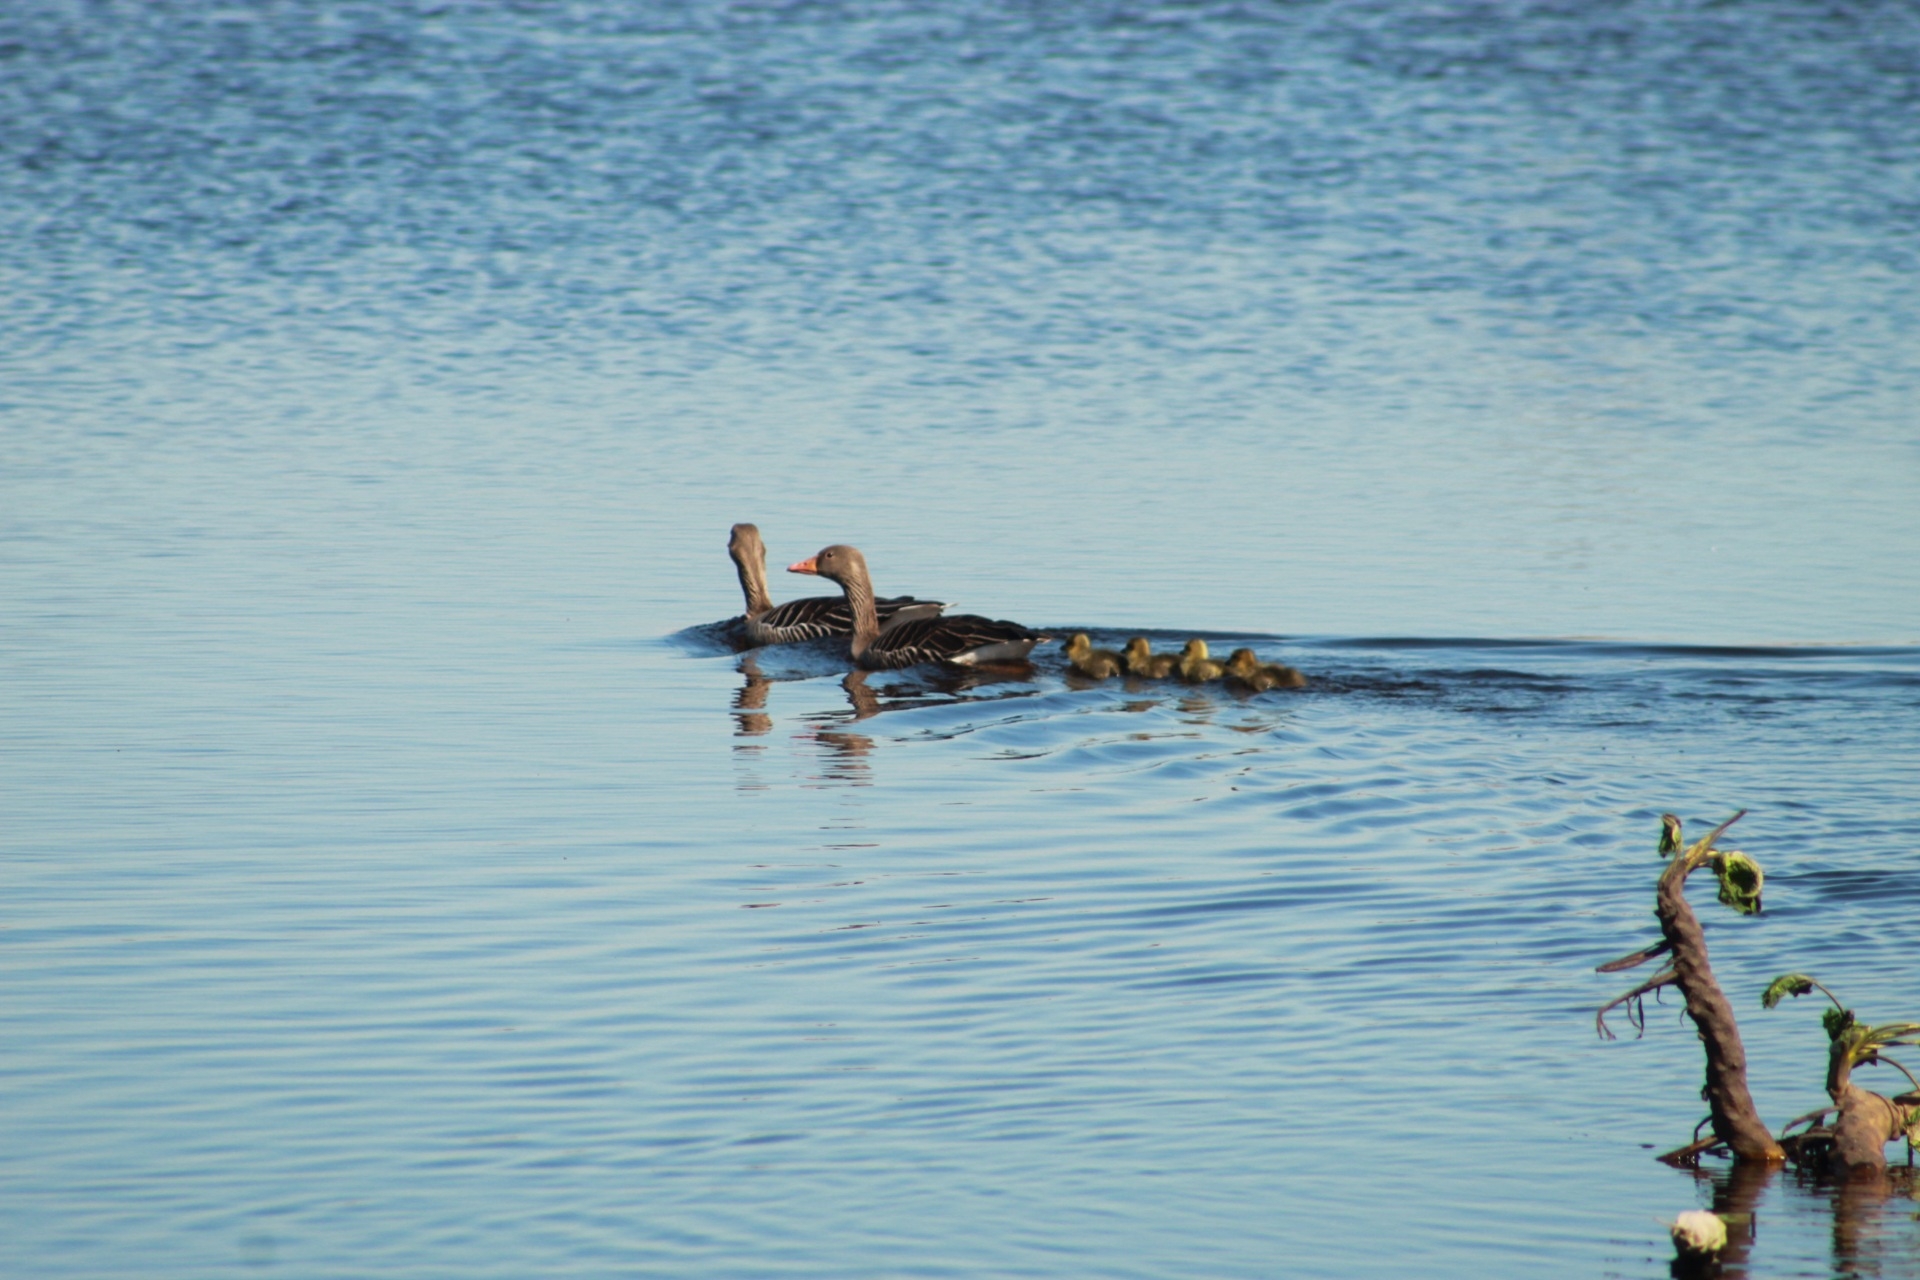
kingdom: Animalia
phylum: Chordata
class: Aves
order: Anseriformes
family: Anatidae
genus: Anser
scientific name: Anser anser
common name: Greylag goose
